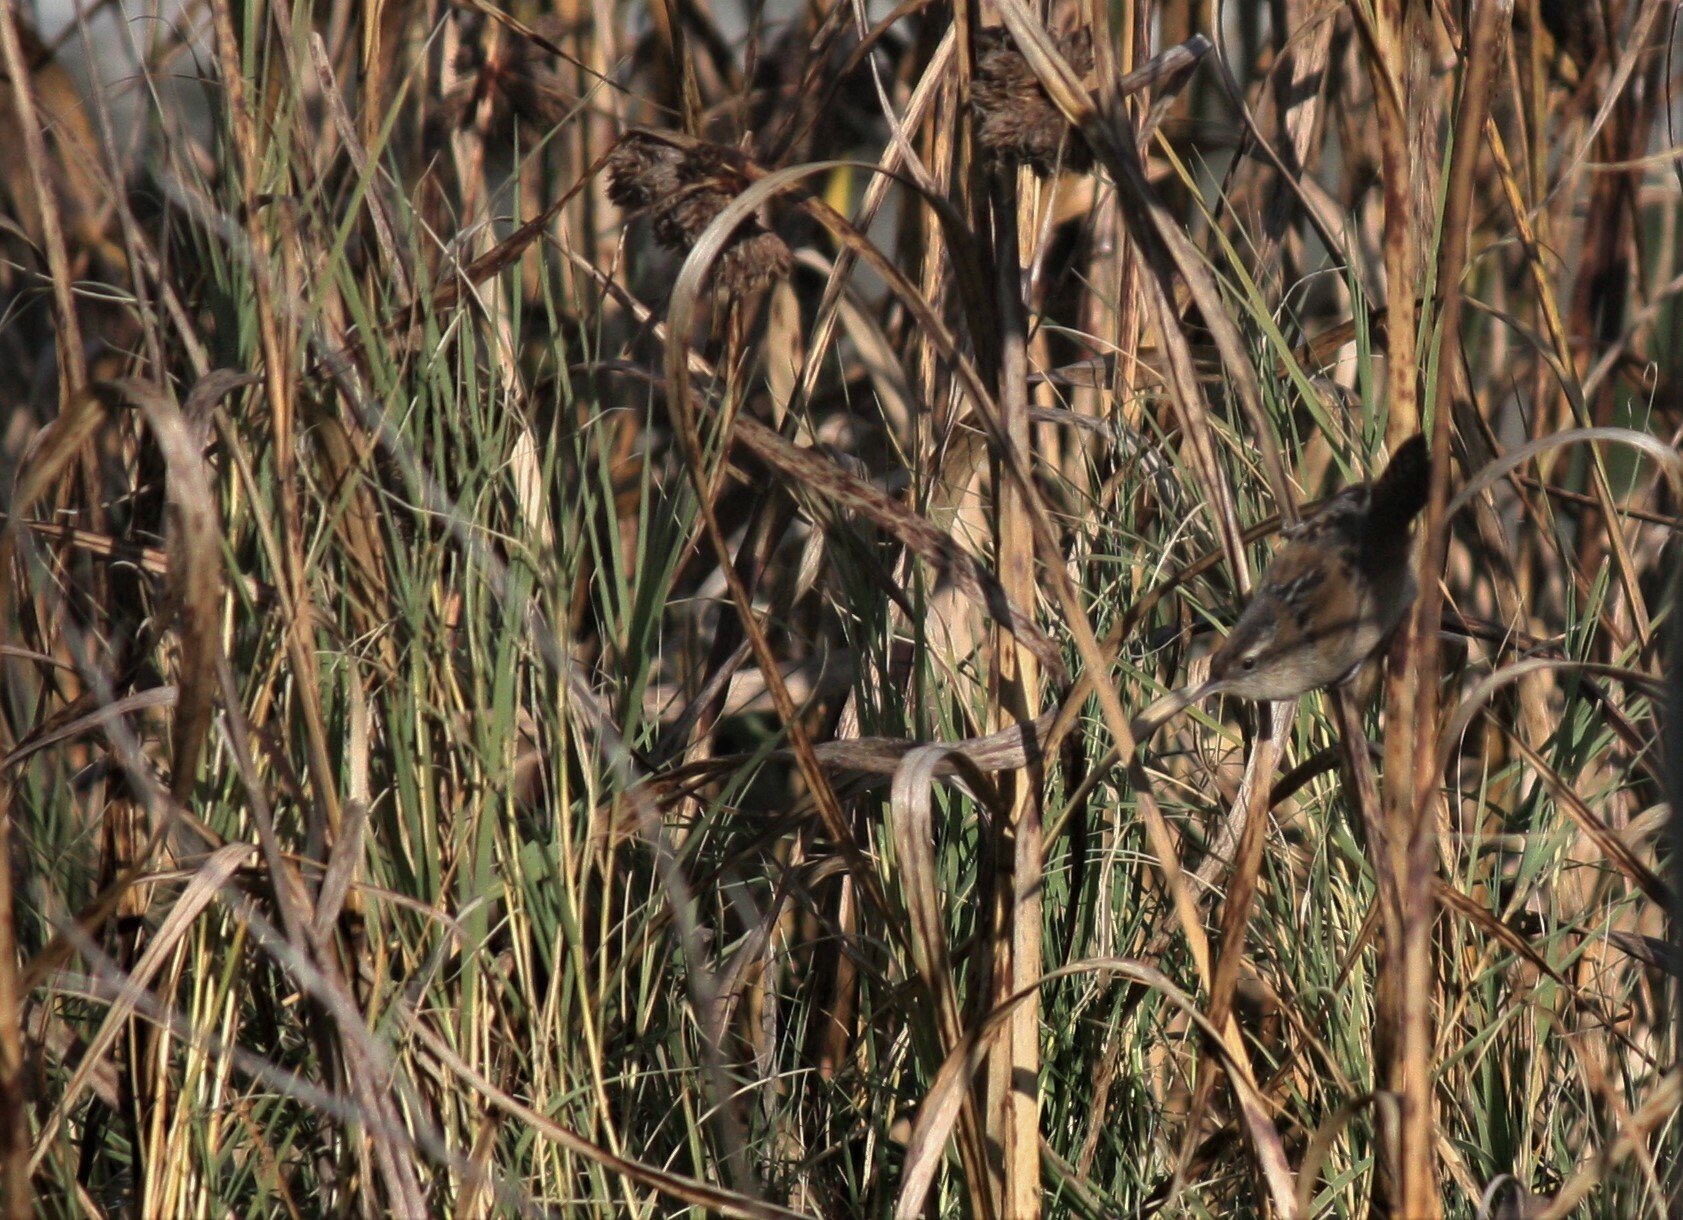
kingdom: Animalia
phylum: Chordata
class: Aves
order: Passeriformes
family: Troglodytidae
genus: Cistothorus
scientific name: Cistothorus palustris
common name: Marsh wren
